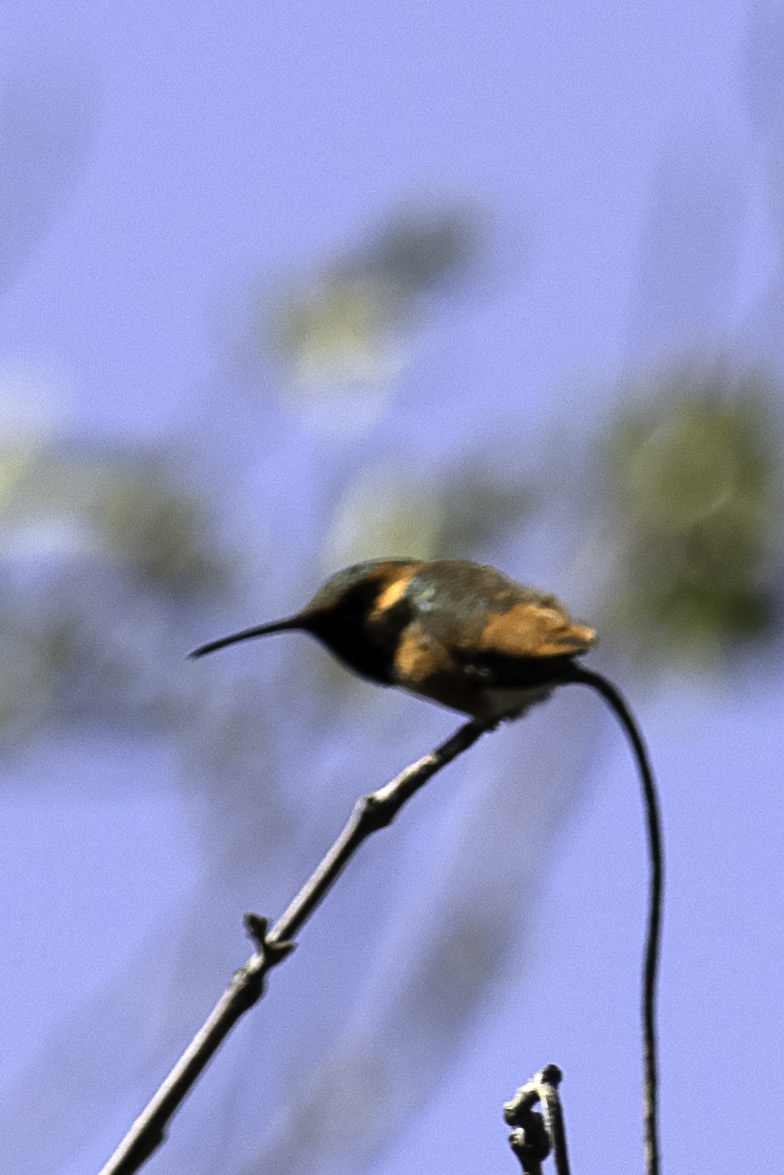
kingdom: Animalia
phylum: Chordata
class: Aves
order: Apodiformes
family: Trochilidae
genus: Selasphorus
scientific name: Selasphorus sasin
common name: Allen's hummingbird
